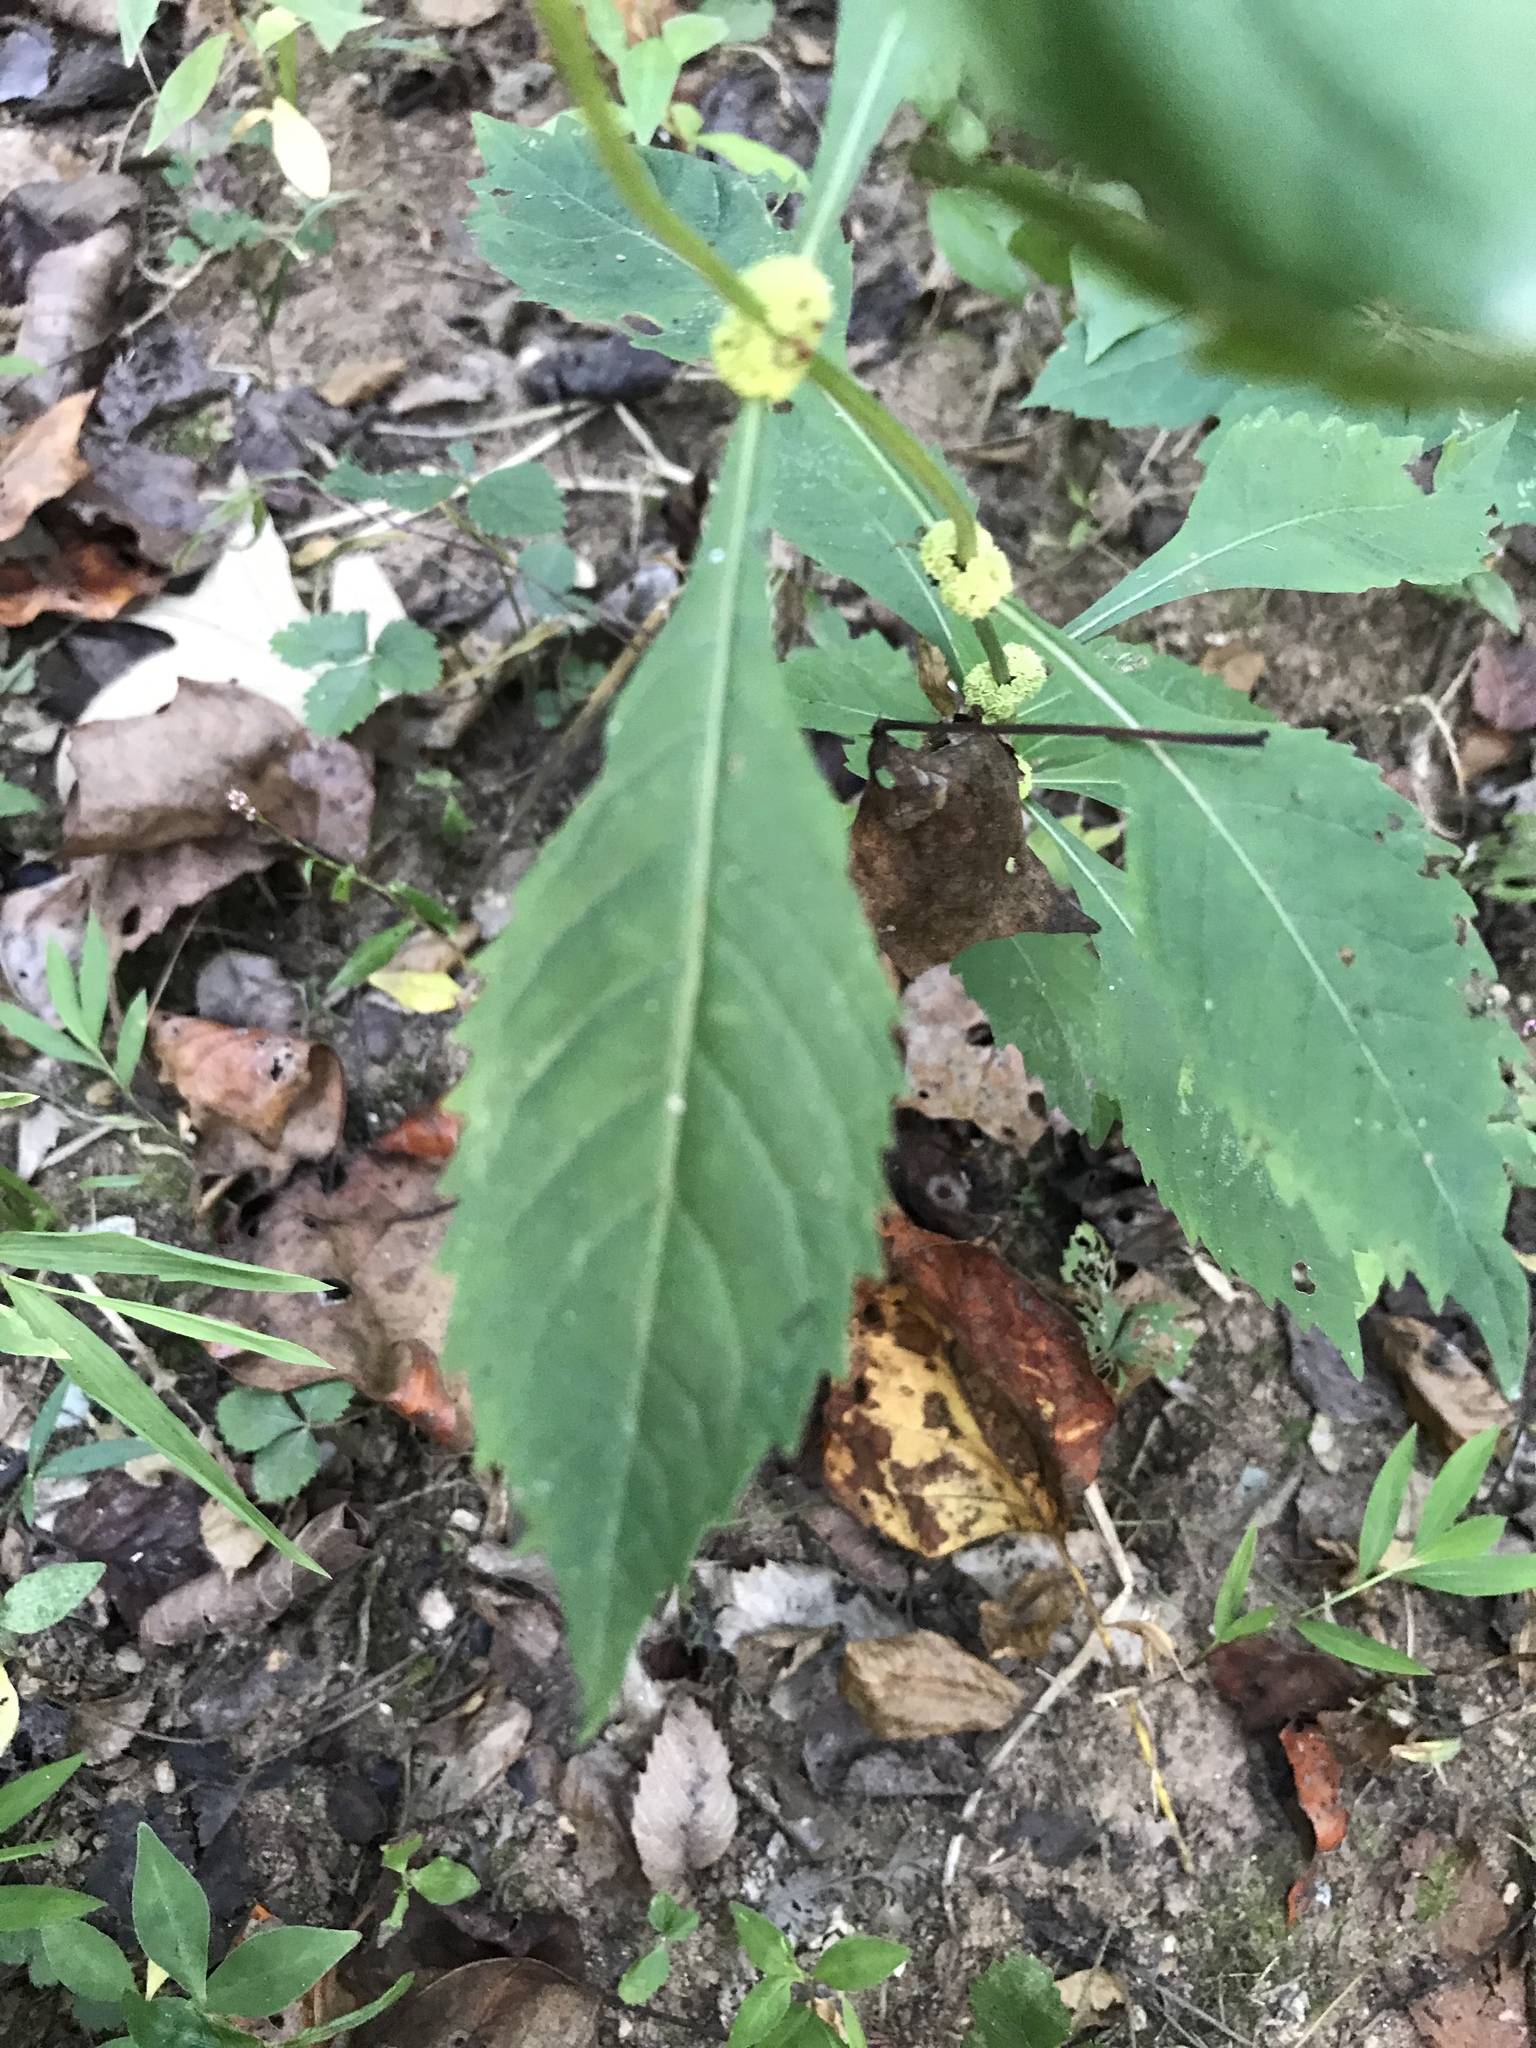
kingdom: Plantae
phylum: Tracheophyta
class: Magnoliopsida
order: Lamiales
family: Lamiaceae
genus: Lycopus
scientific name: Lycopus virginicus
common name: Bugleweed
